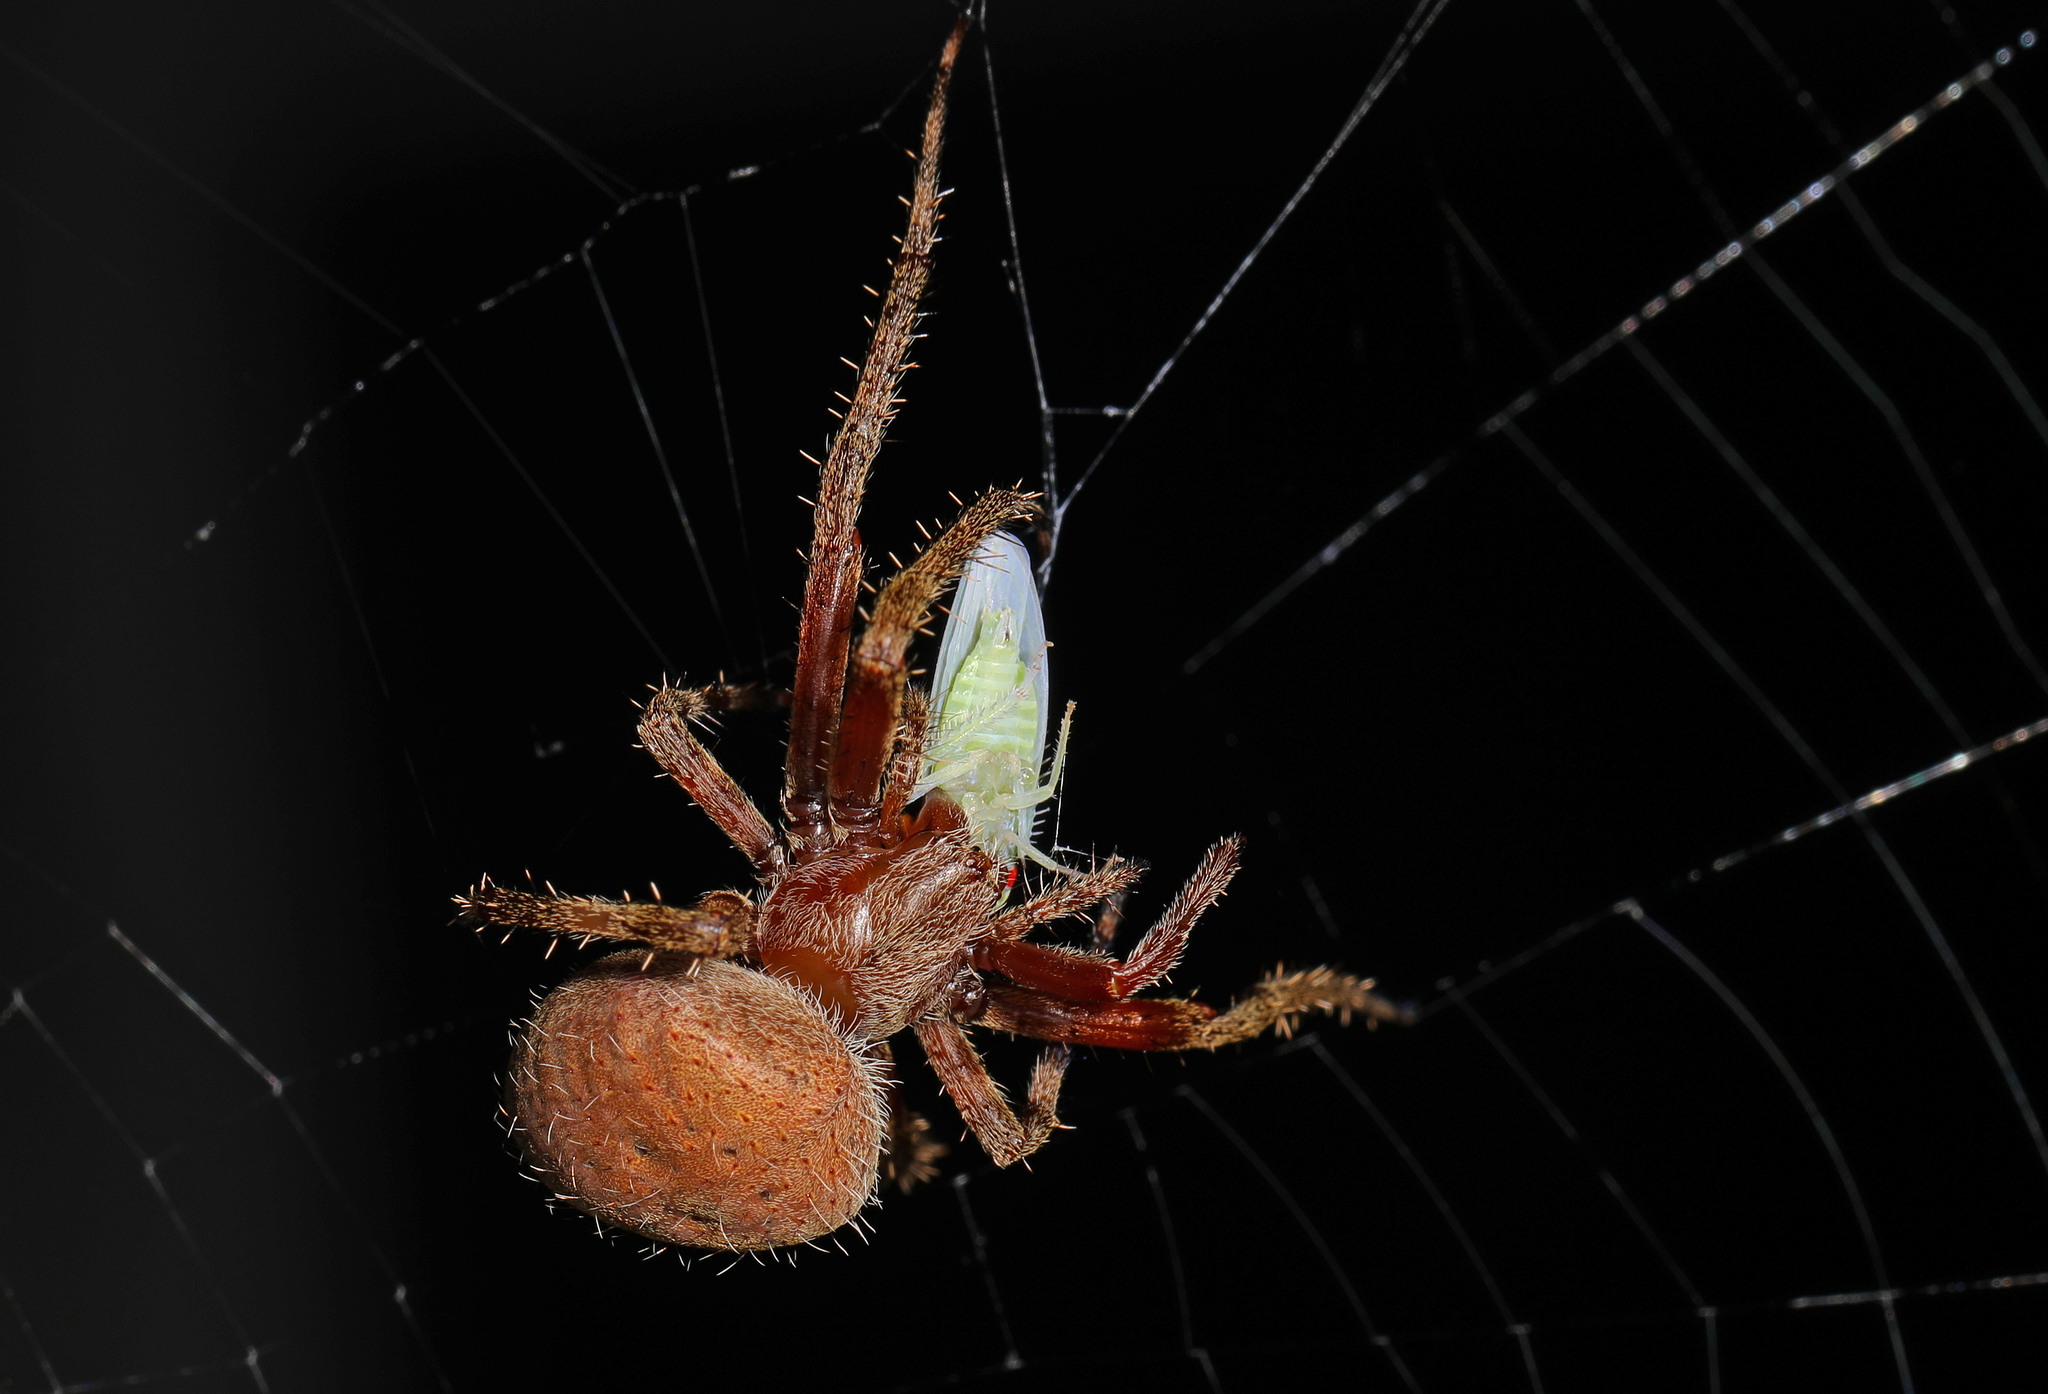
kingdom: Animalia
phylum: Arthropoda
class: Arachnida
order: Araneae
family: Araneidae
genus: Neoscona
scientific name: Neoscona crucifera
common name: Spotted orbweaver
